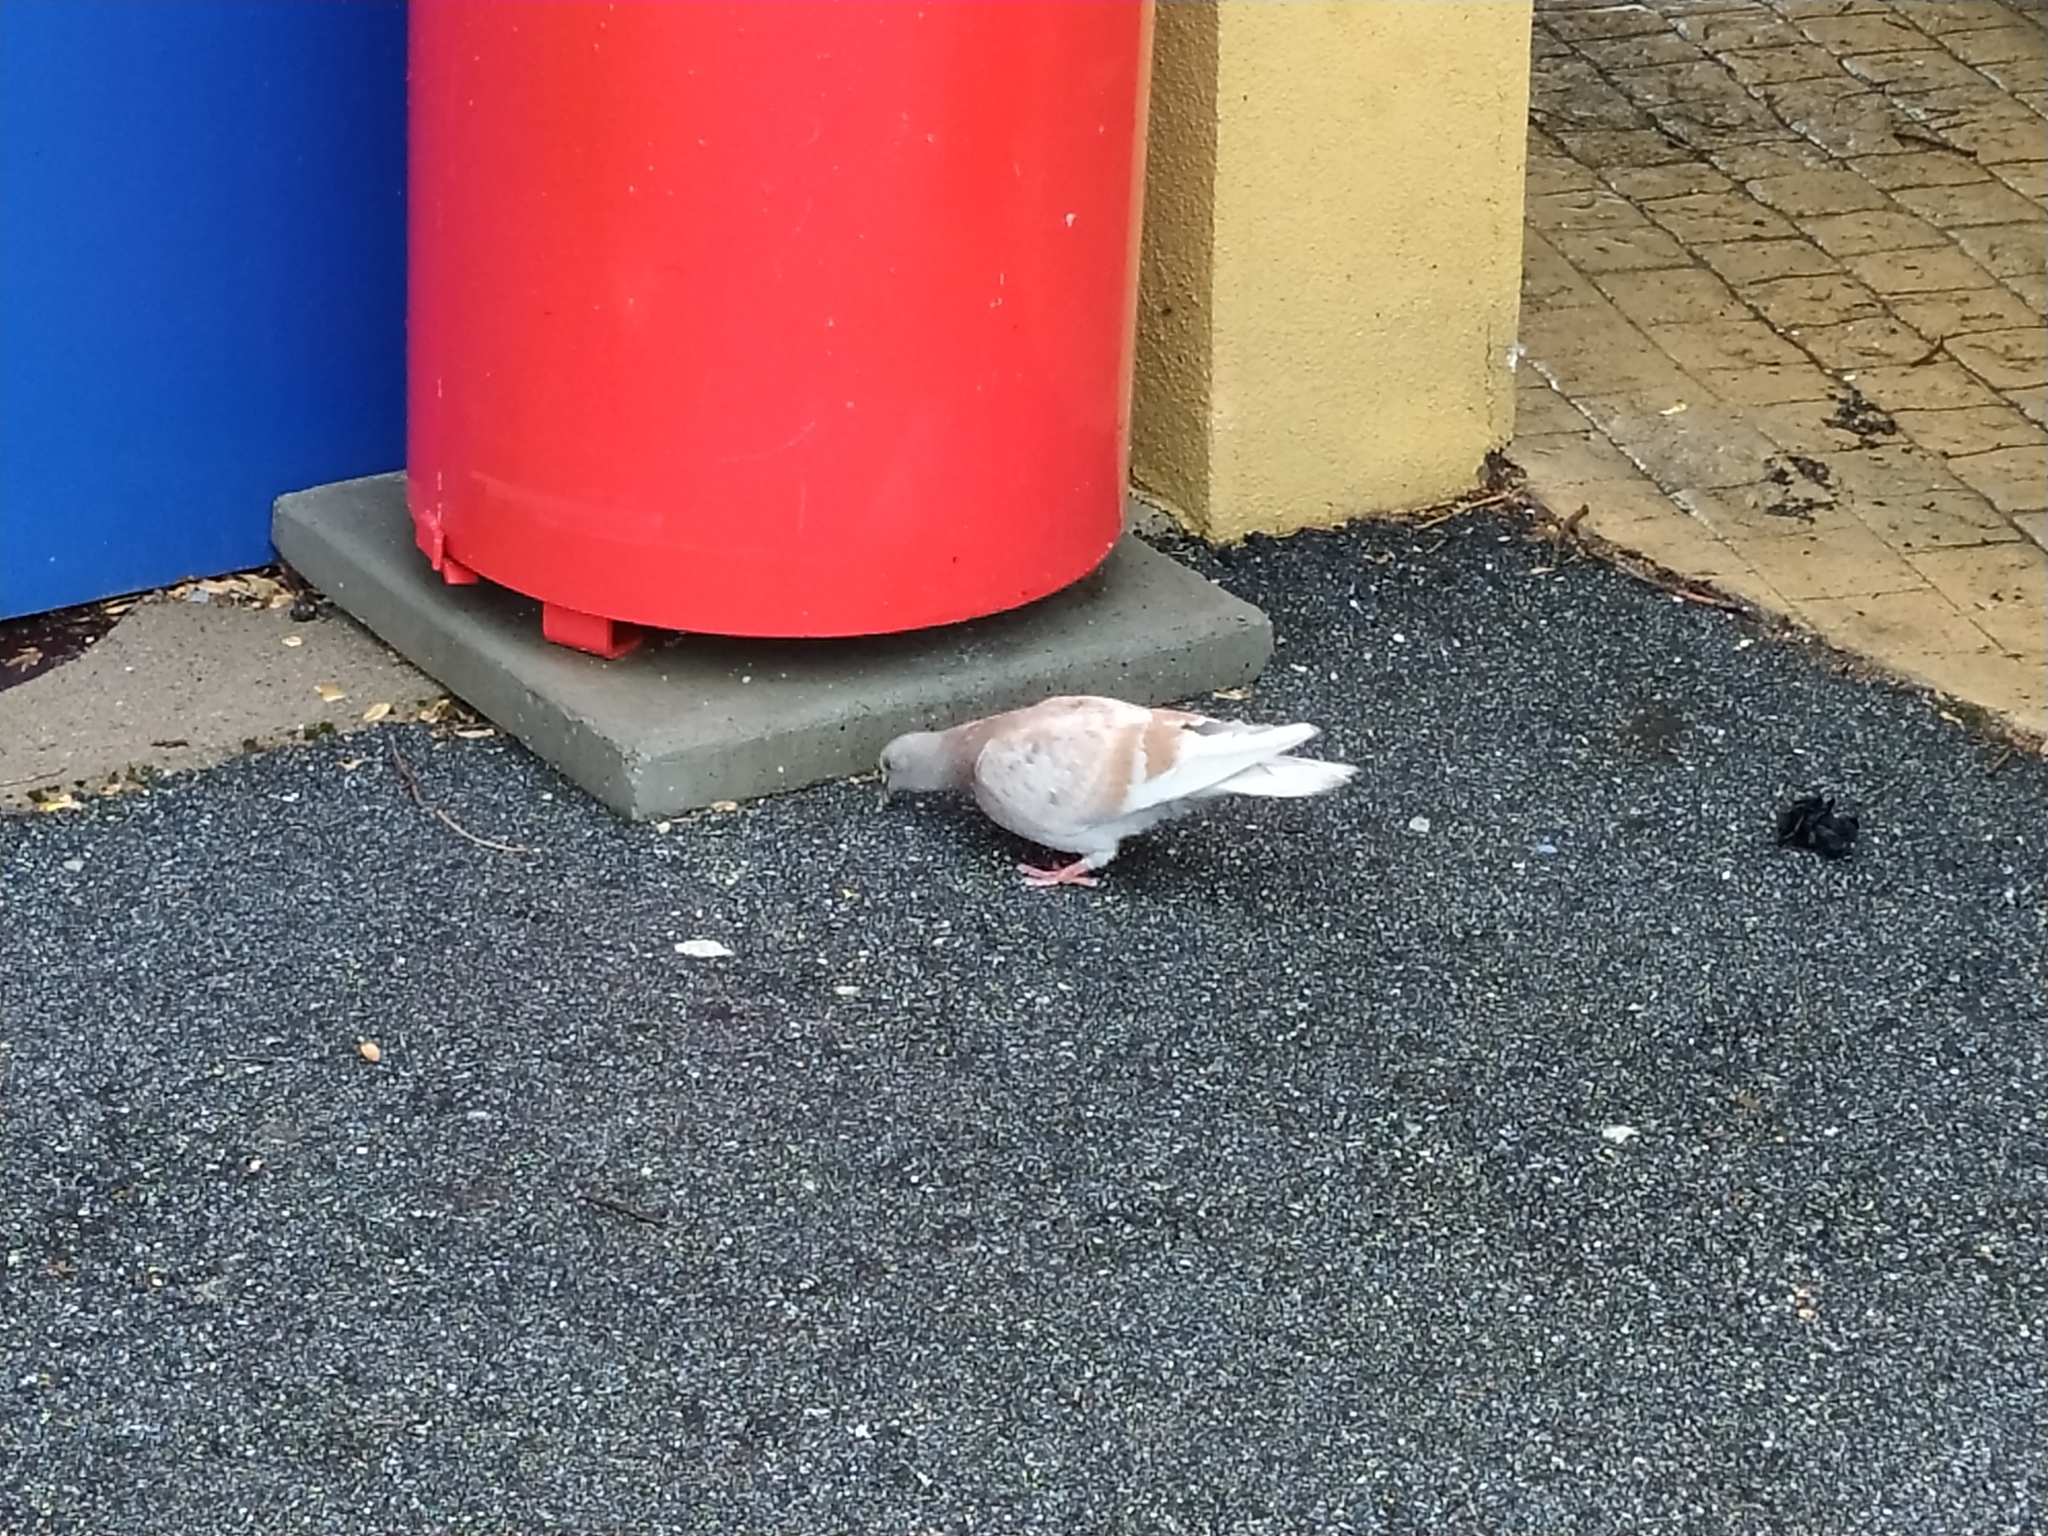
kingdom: Animalia
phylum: Chordata
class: Aves
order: Columbiformes
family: Columbidae
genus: Columba
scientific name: Columba livia
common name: Rock pigeon
